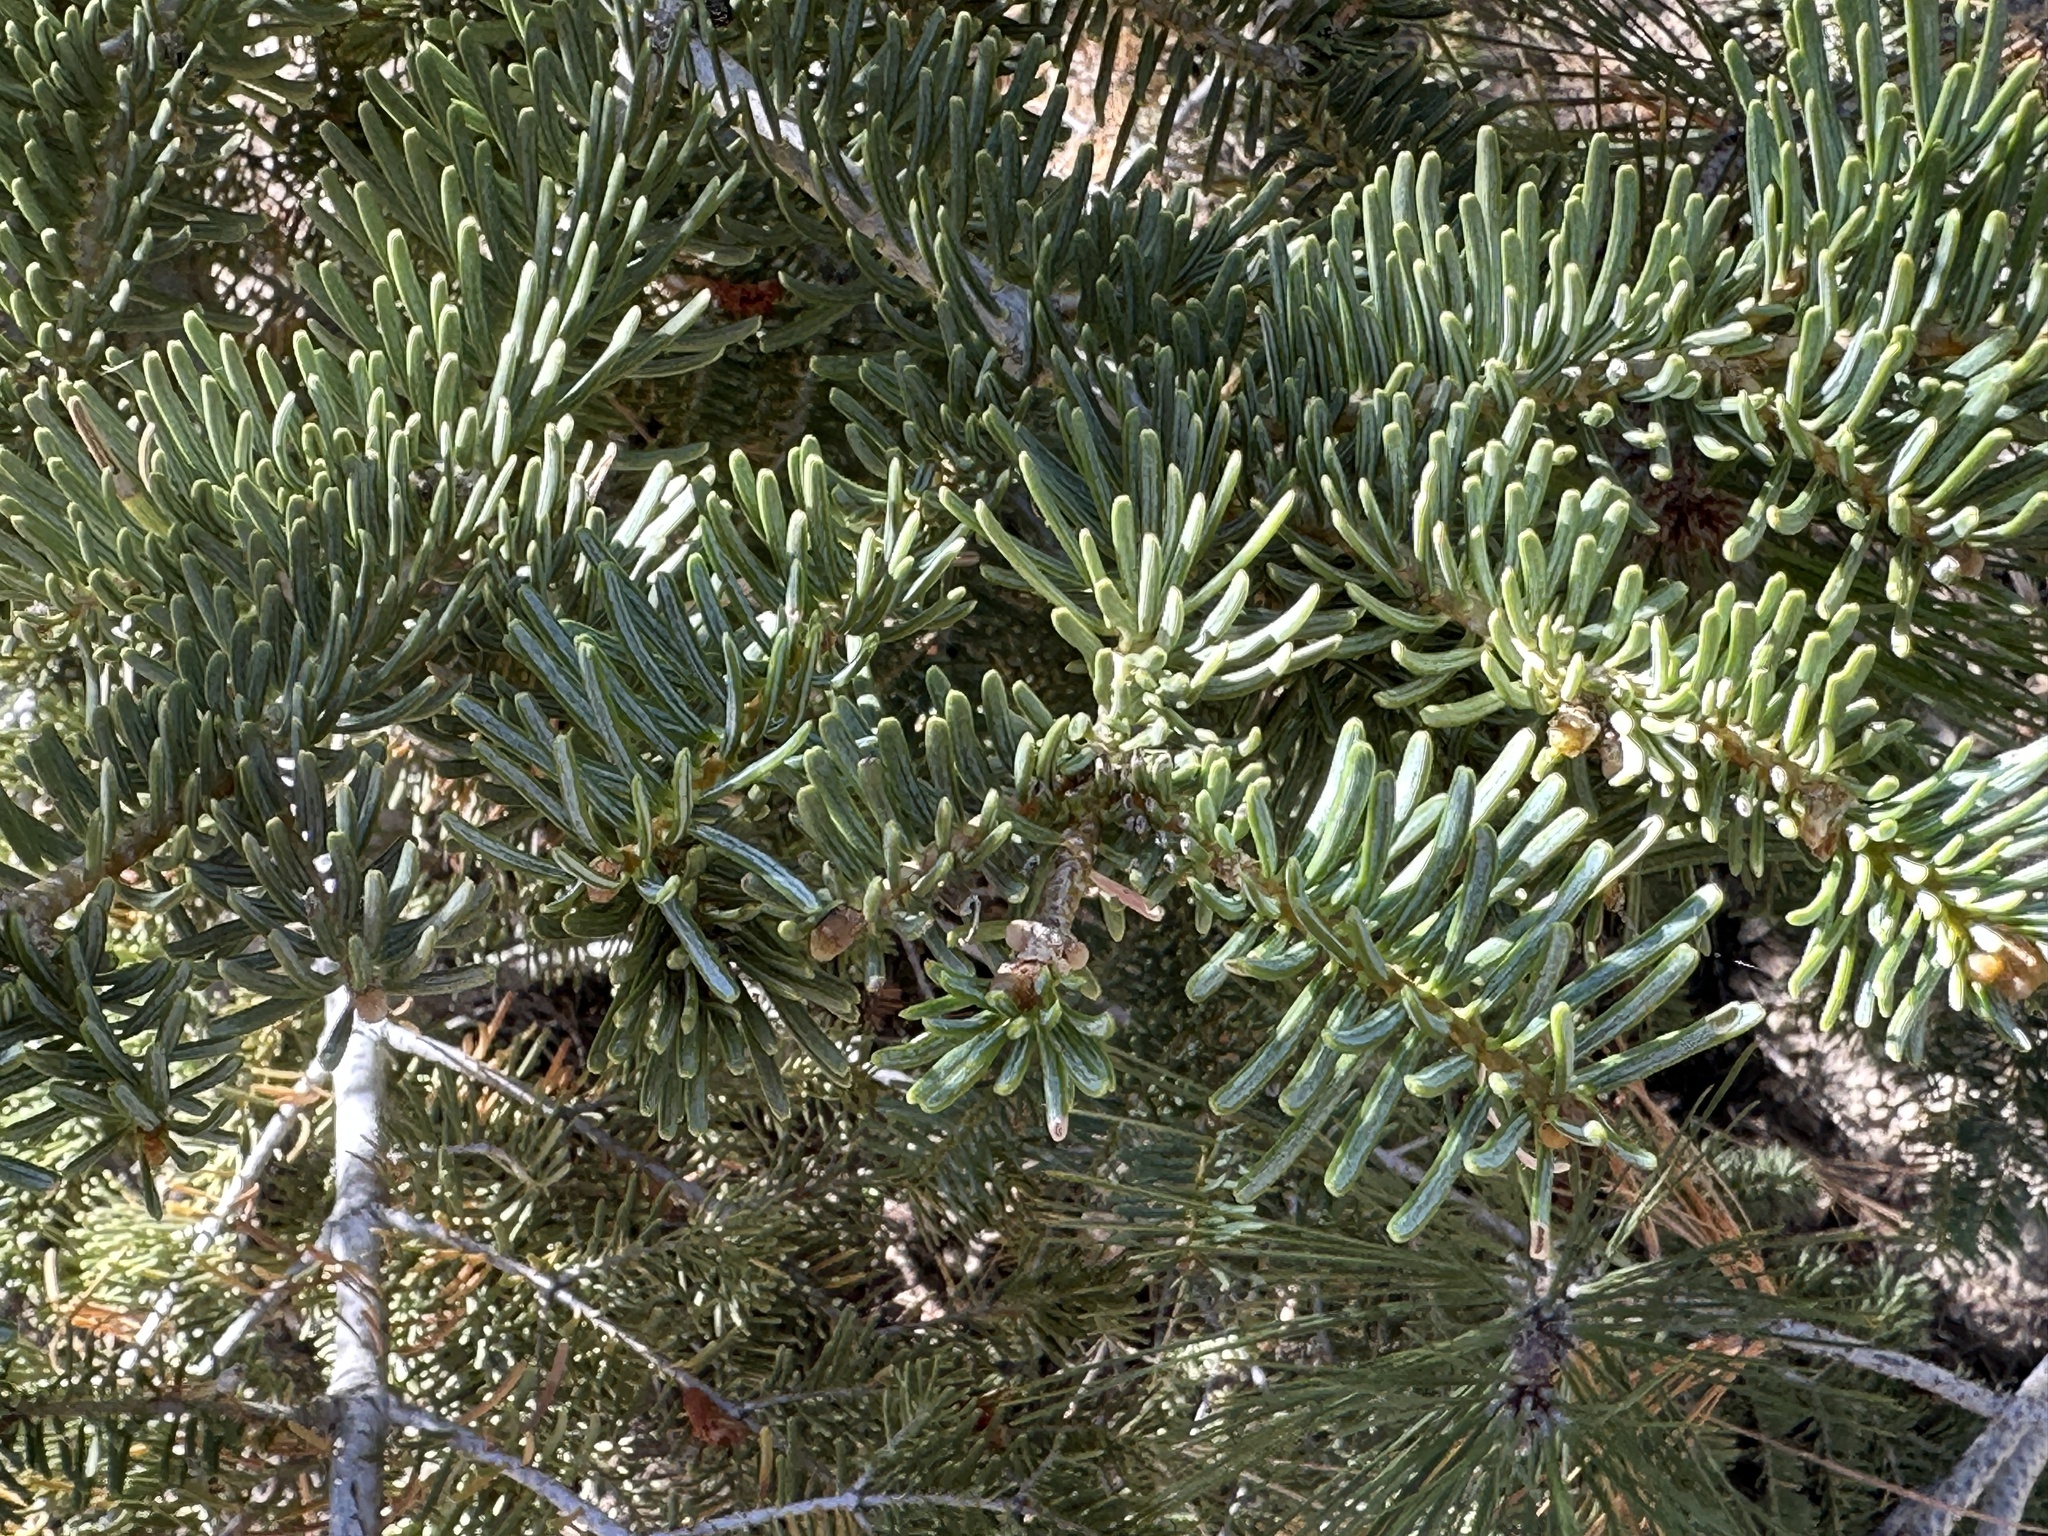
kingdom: Plantae
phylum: Tracheophyta
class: Pinopsida
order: Pinales
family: Pinaceae
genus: Abies
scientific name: Abies concolor
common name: Colorado fir
